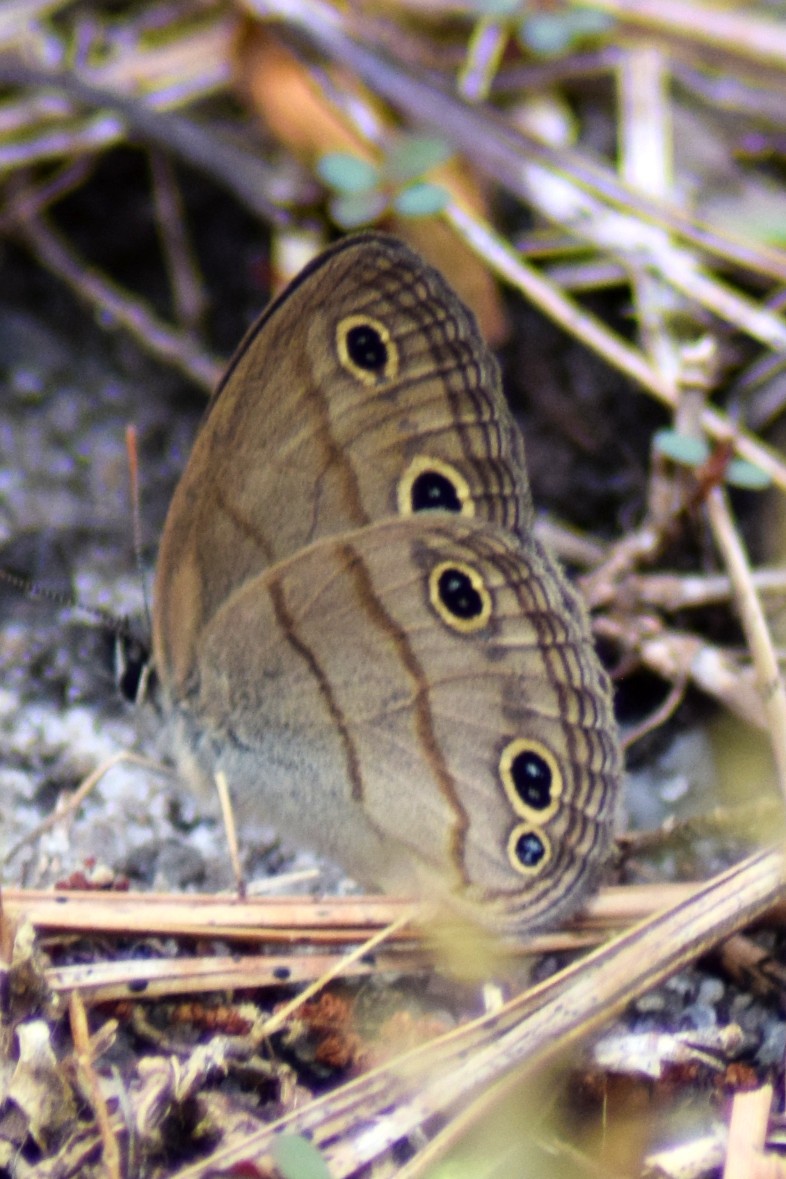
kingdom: Animalia
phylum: Arthropoda
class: Insecta
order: Lepidoptera
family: Nymphalidae
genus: Euptychia
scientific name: Euptychia cymela
